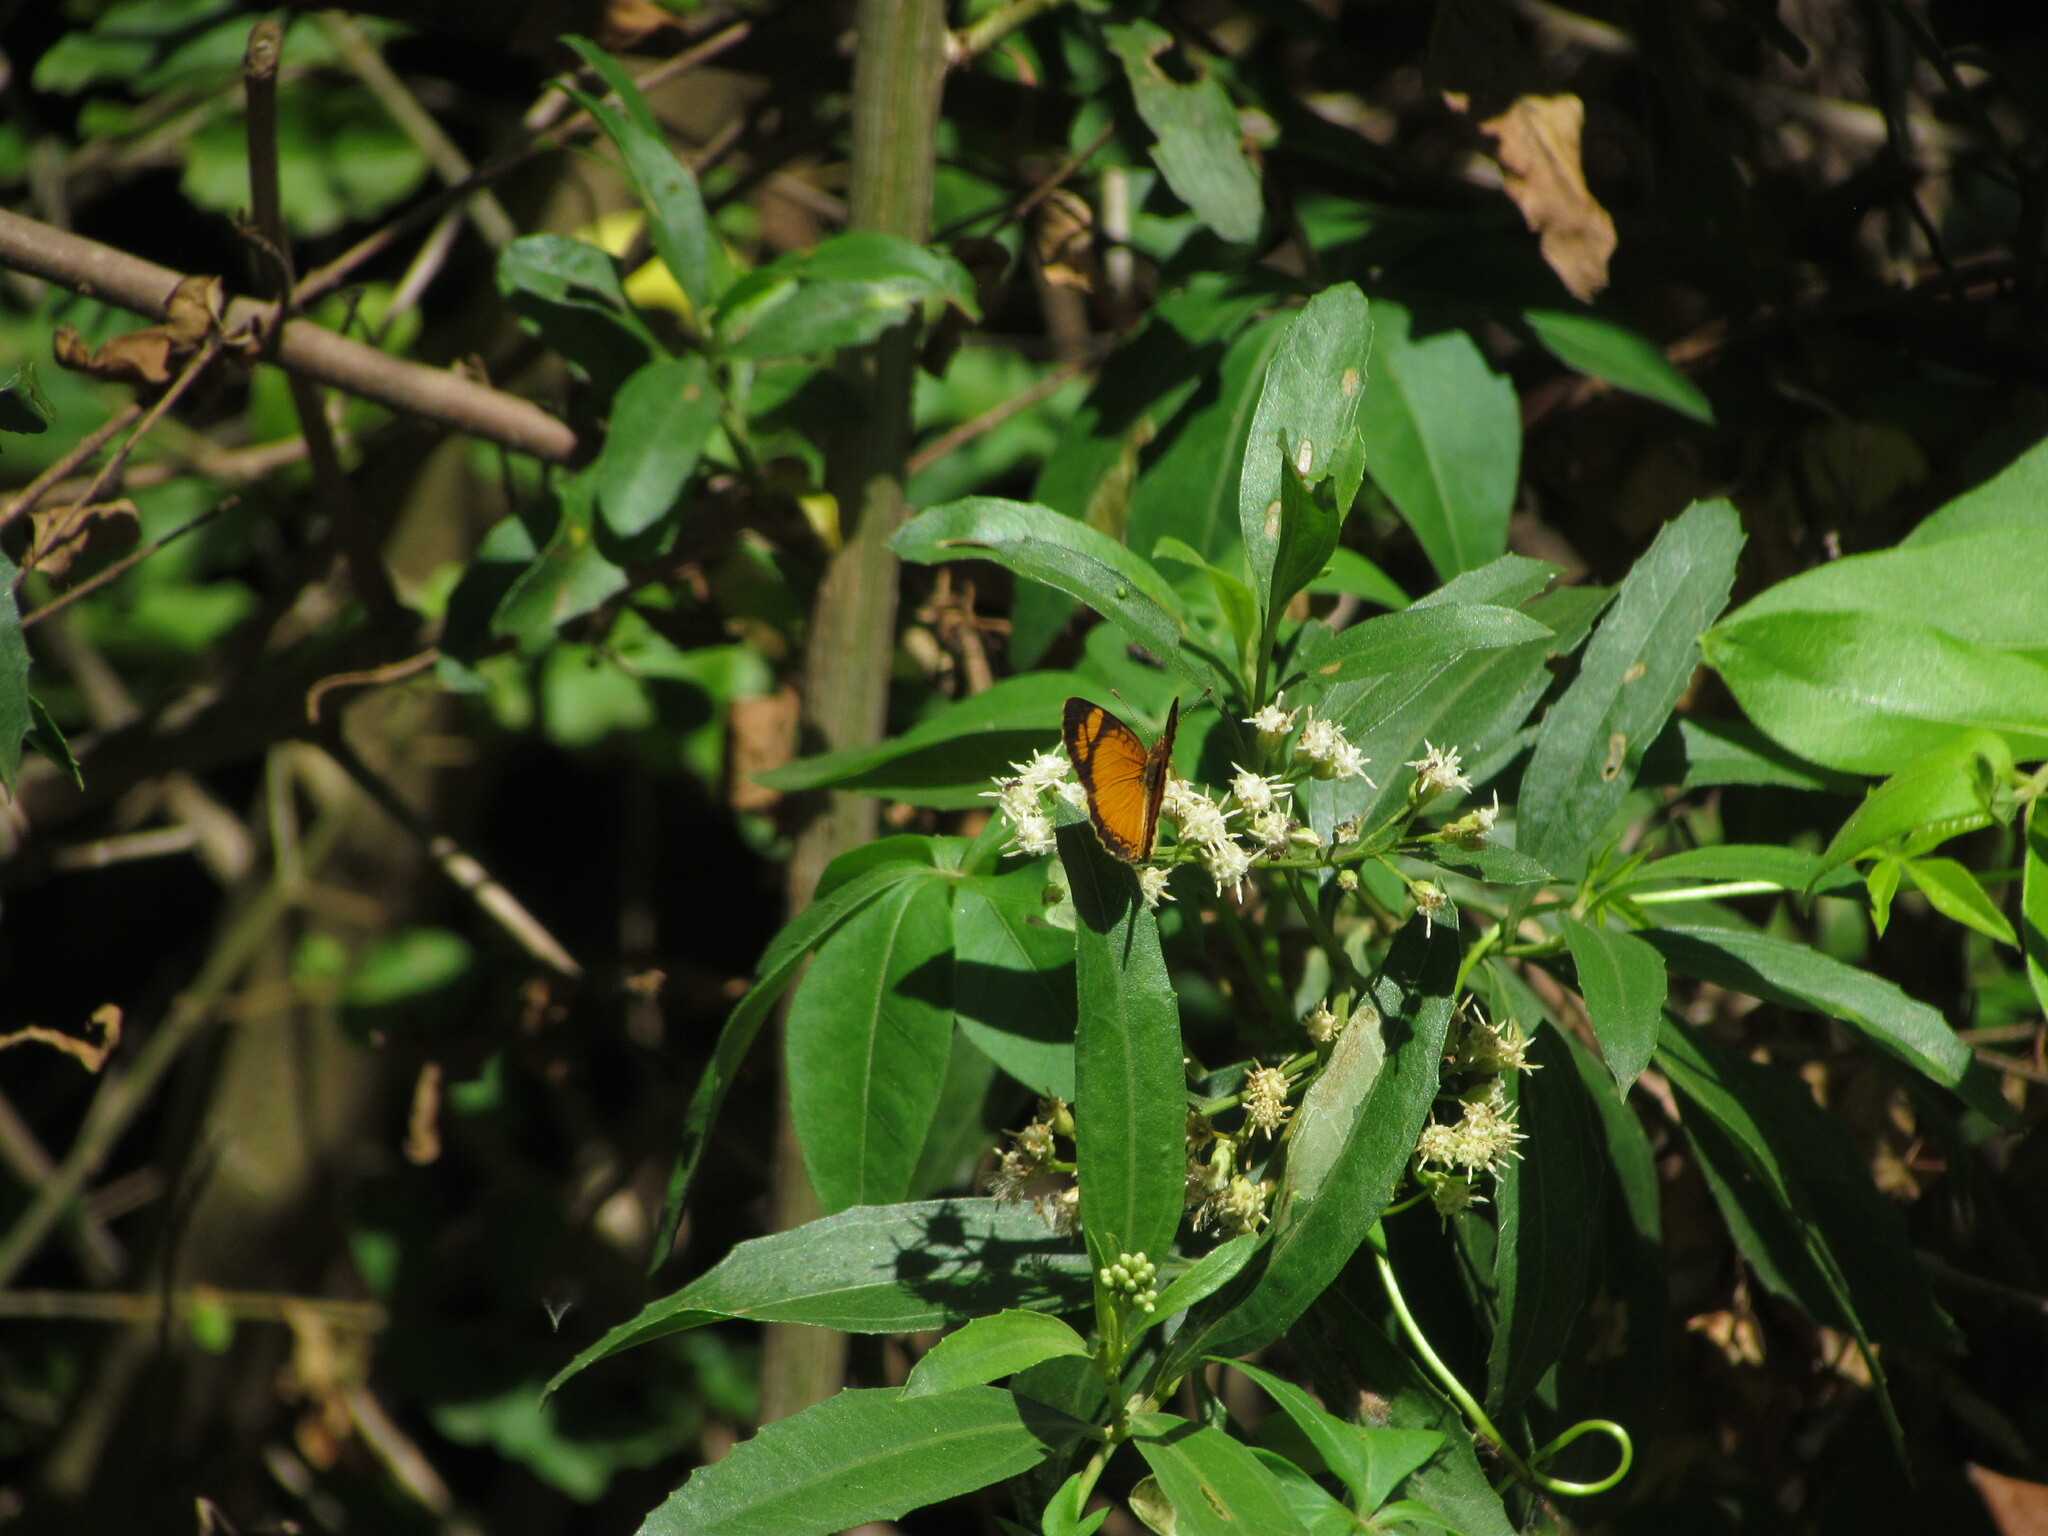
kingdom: Animalia
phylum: Arthropoda
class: Insecta
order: Lepidoptera
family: Nymphalidae
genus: Tegosa
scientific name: Tegosa claudina
